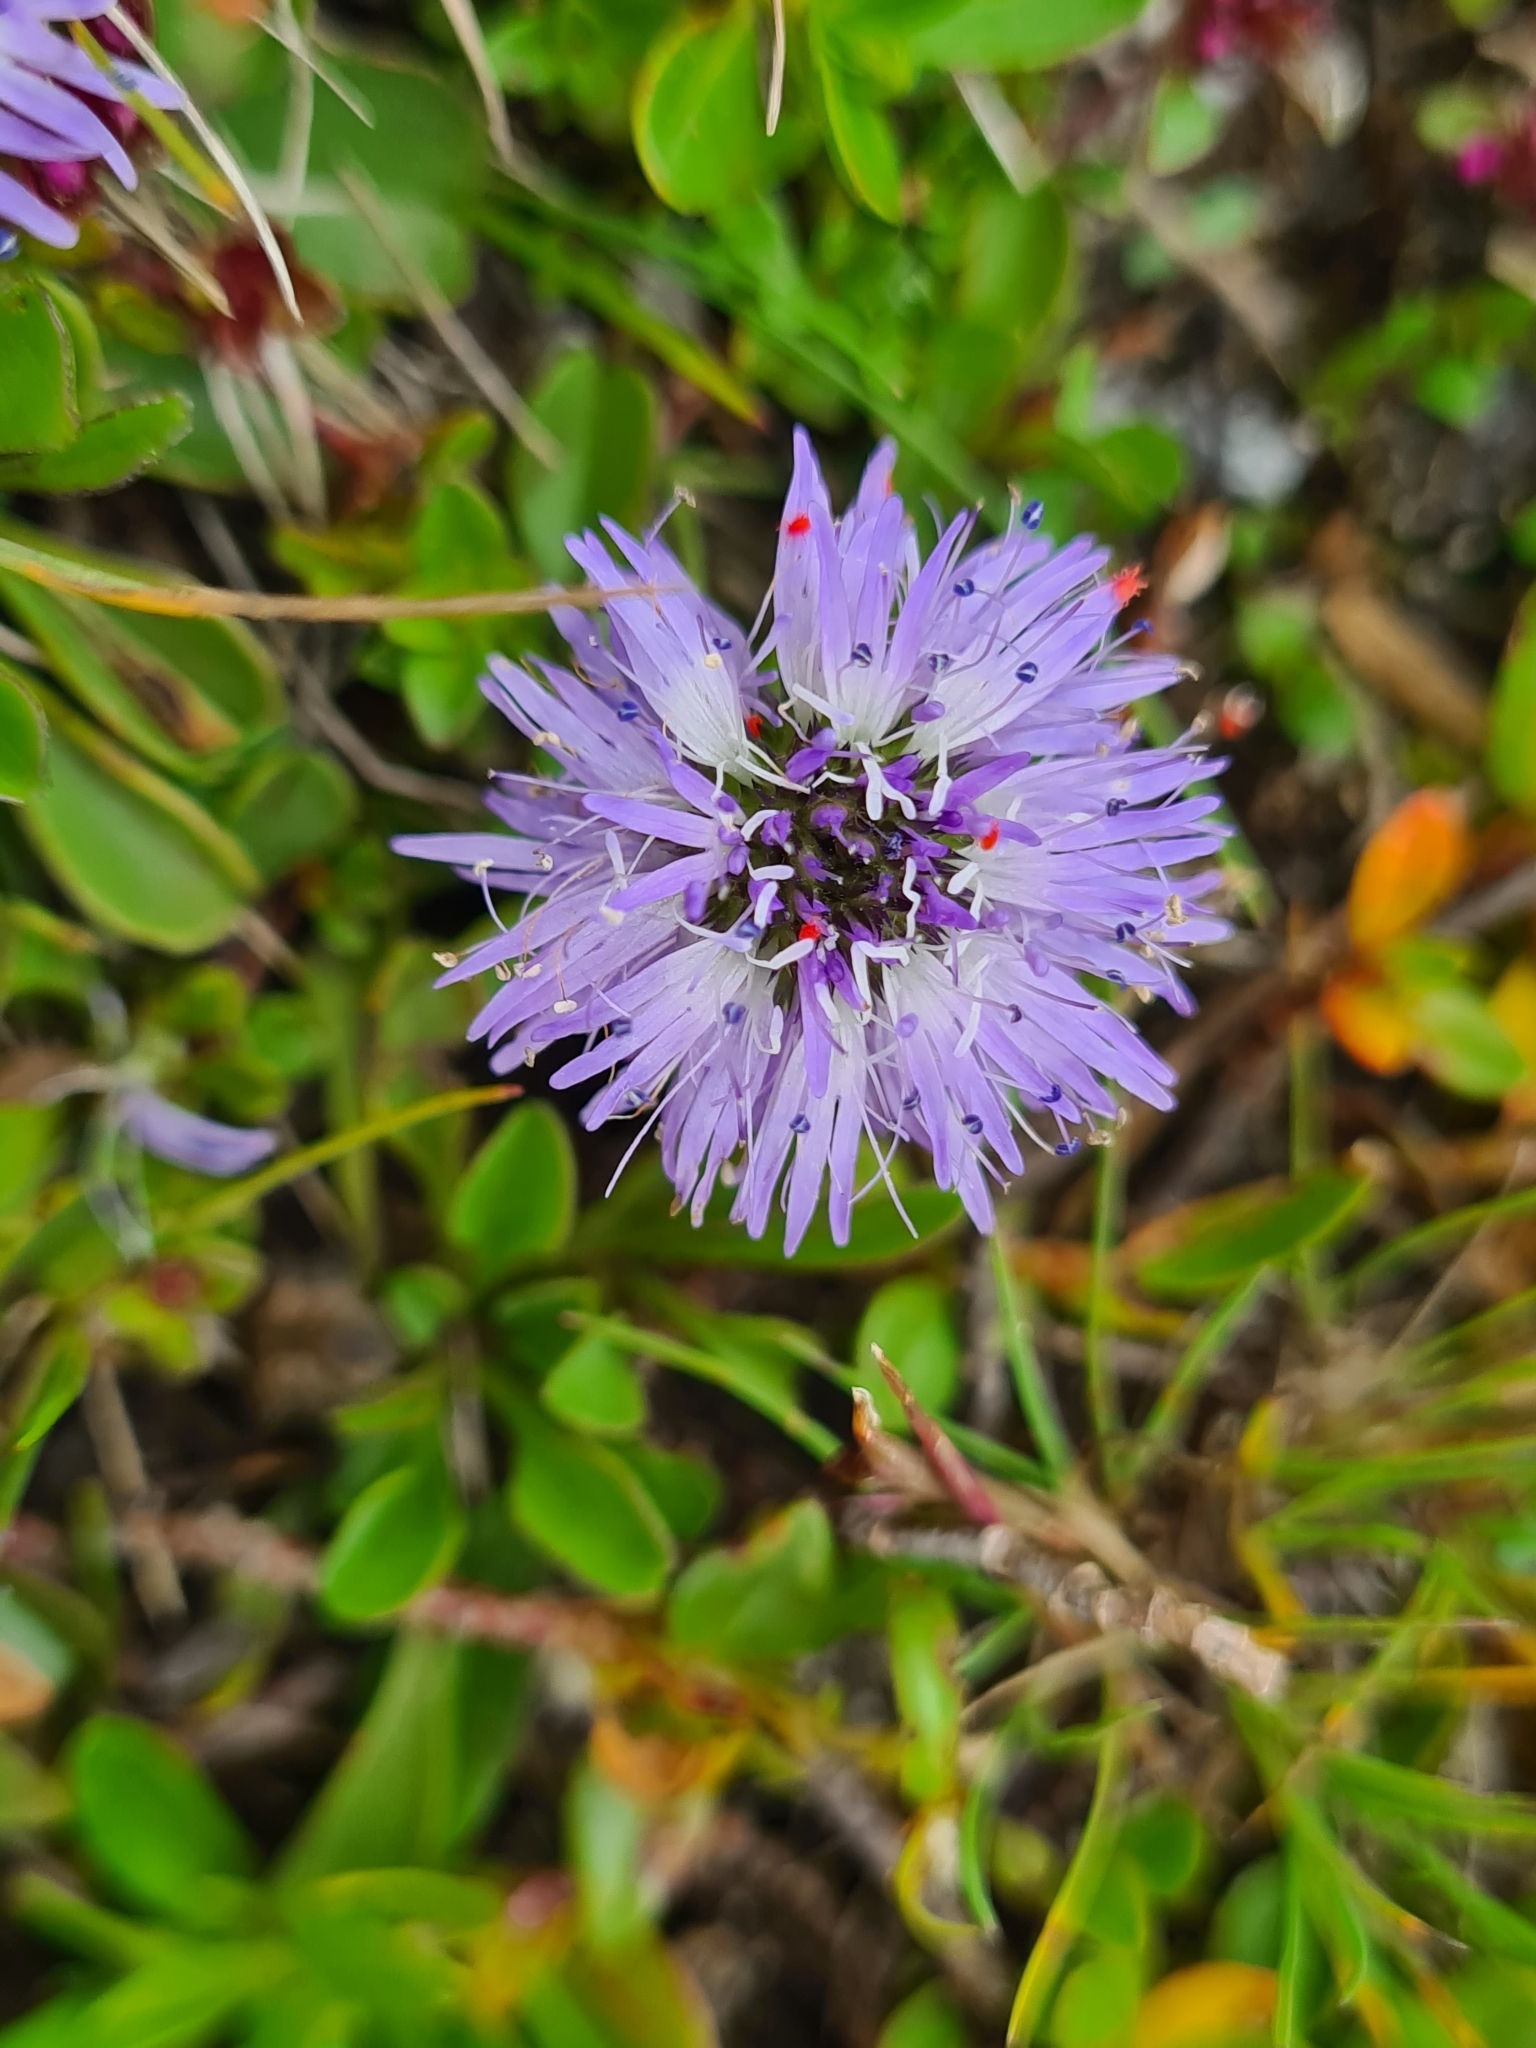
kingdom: Plantae
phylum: Tracheophyta
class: Magnoliopsida
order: Lamiales
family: Plantaginaceae
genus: Globularia
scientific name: Globularia cordifolia
